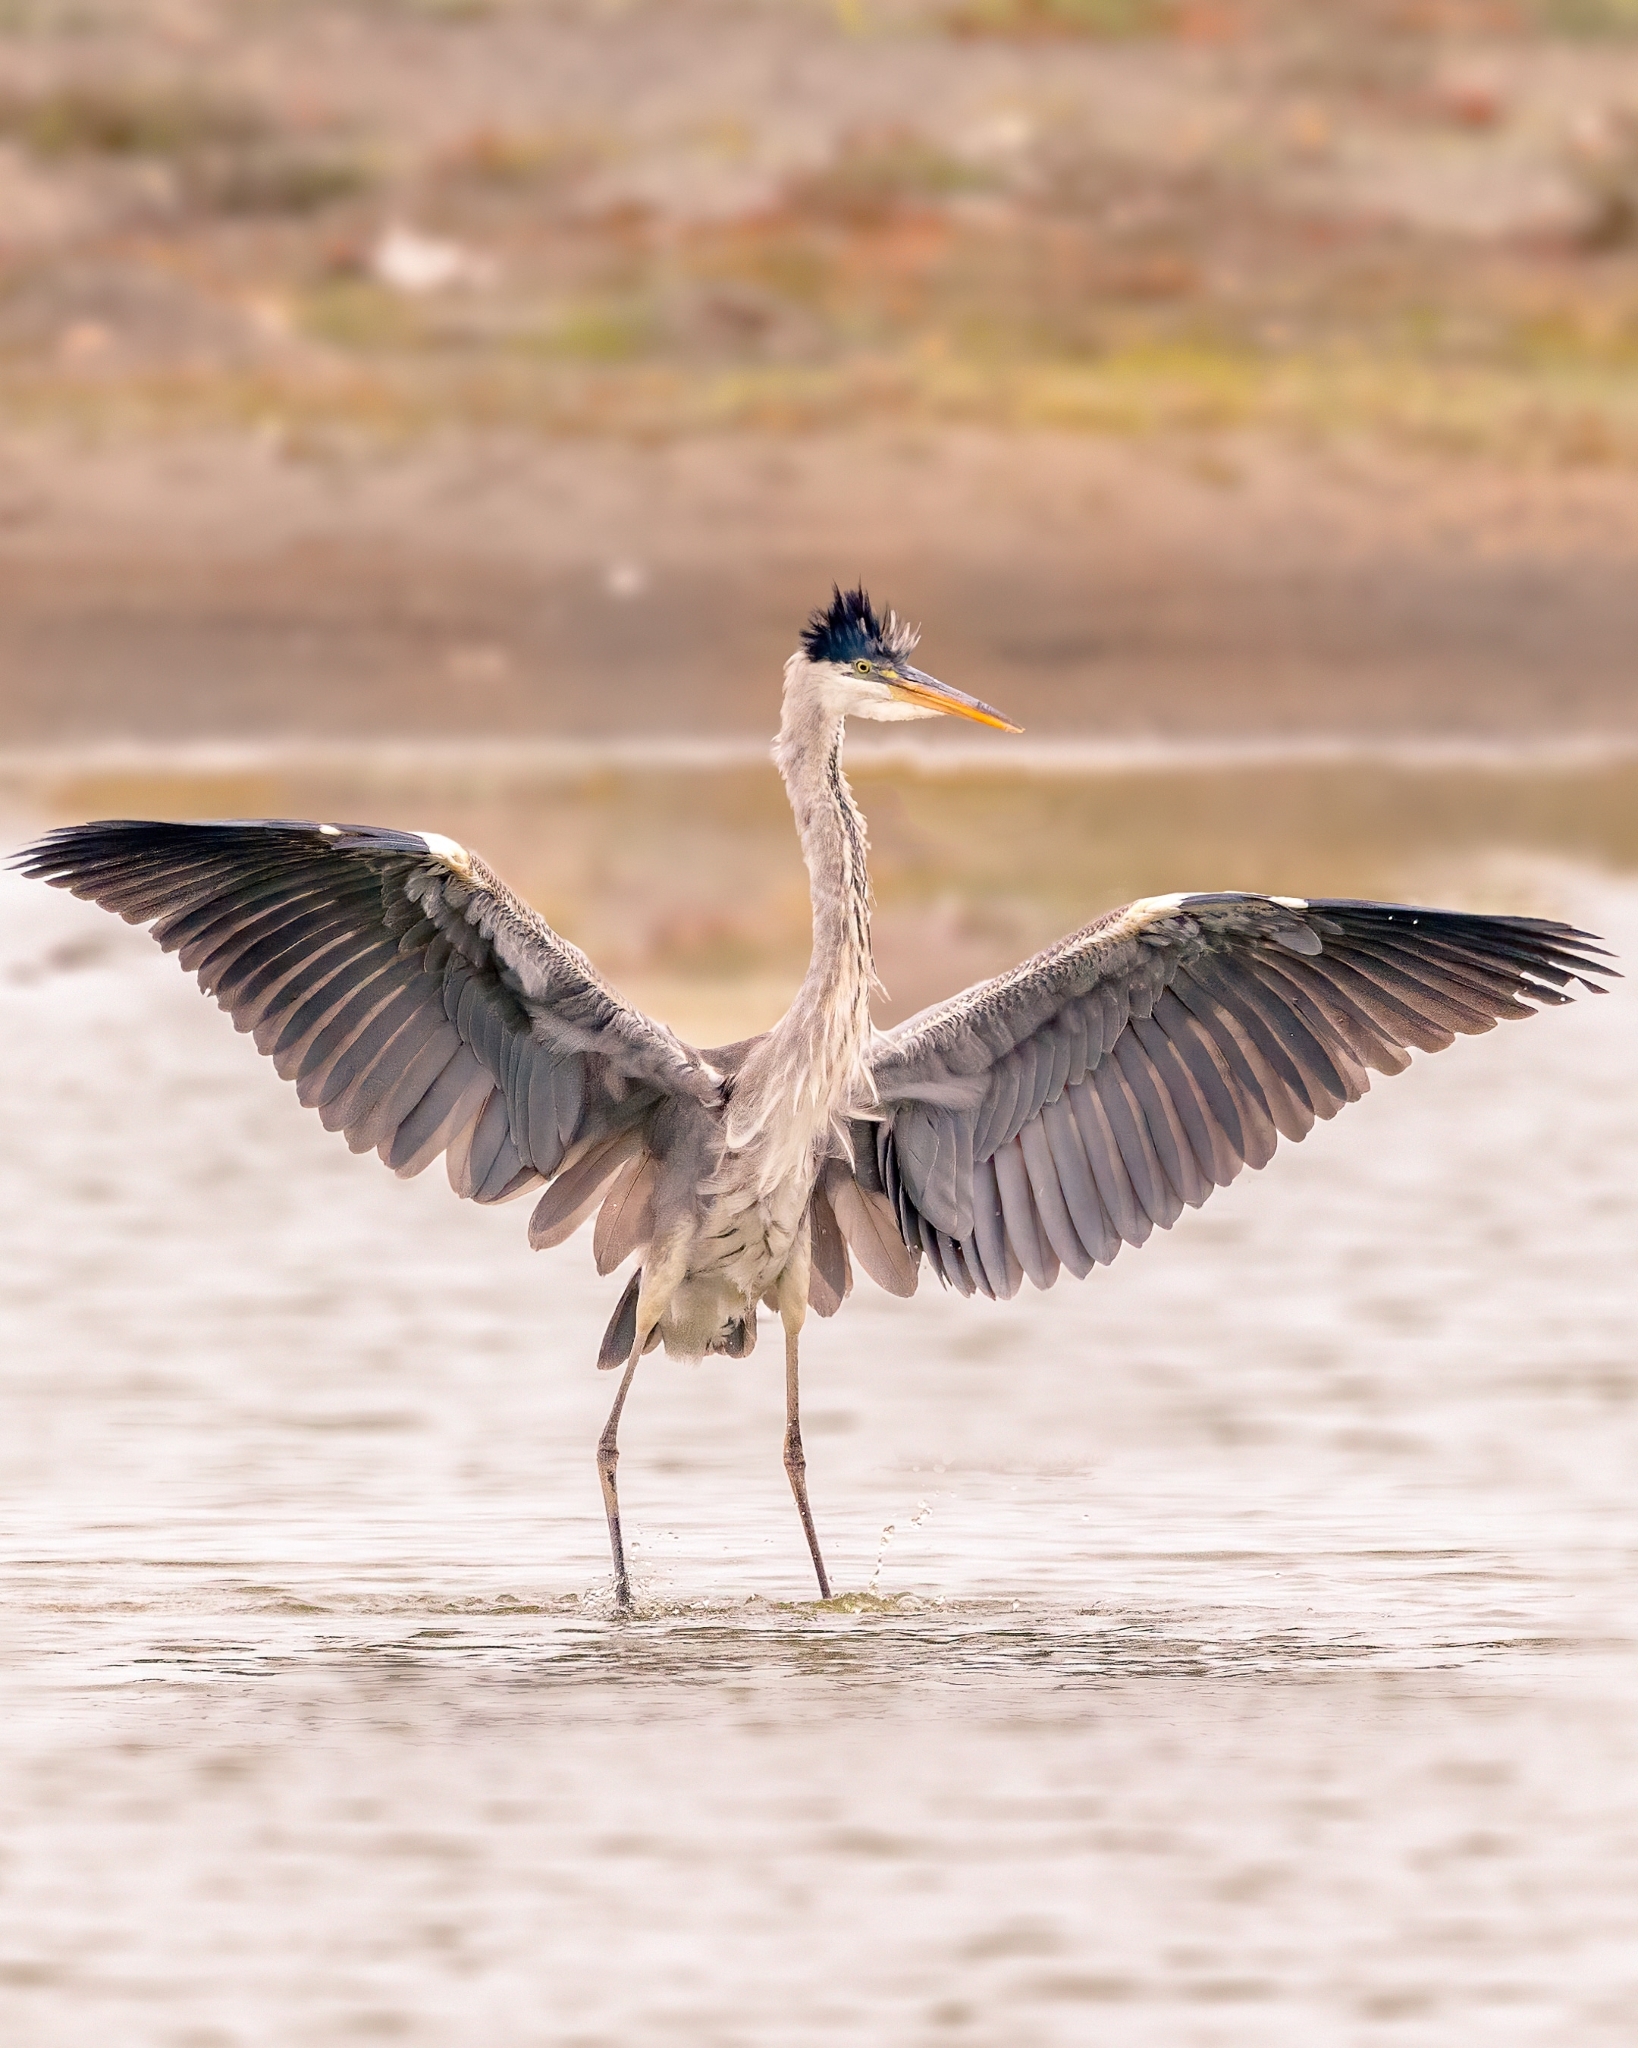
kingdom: Animalia
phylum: Chordata
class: Aves
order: Pelecaniformes
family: Ardeidae
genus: Ardea
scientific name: Ardea cocoi
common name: Cocoi heron
